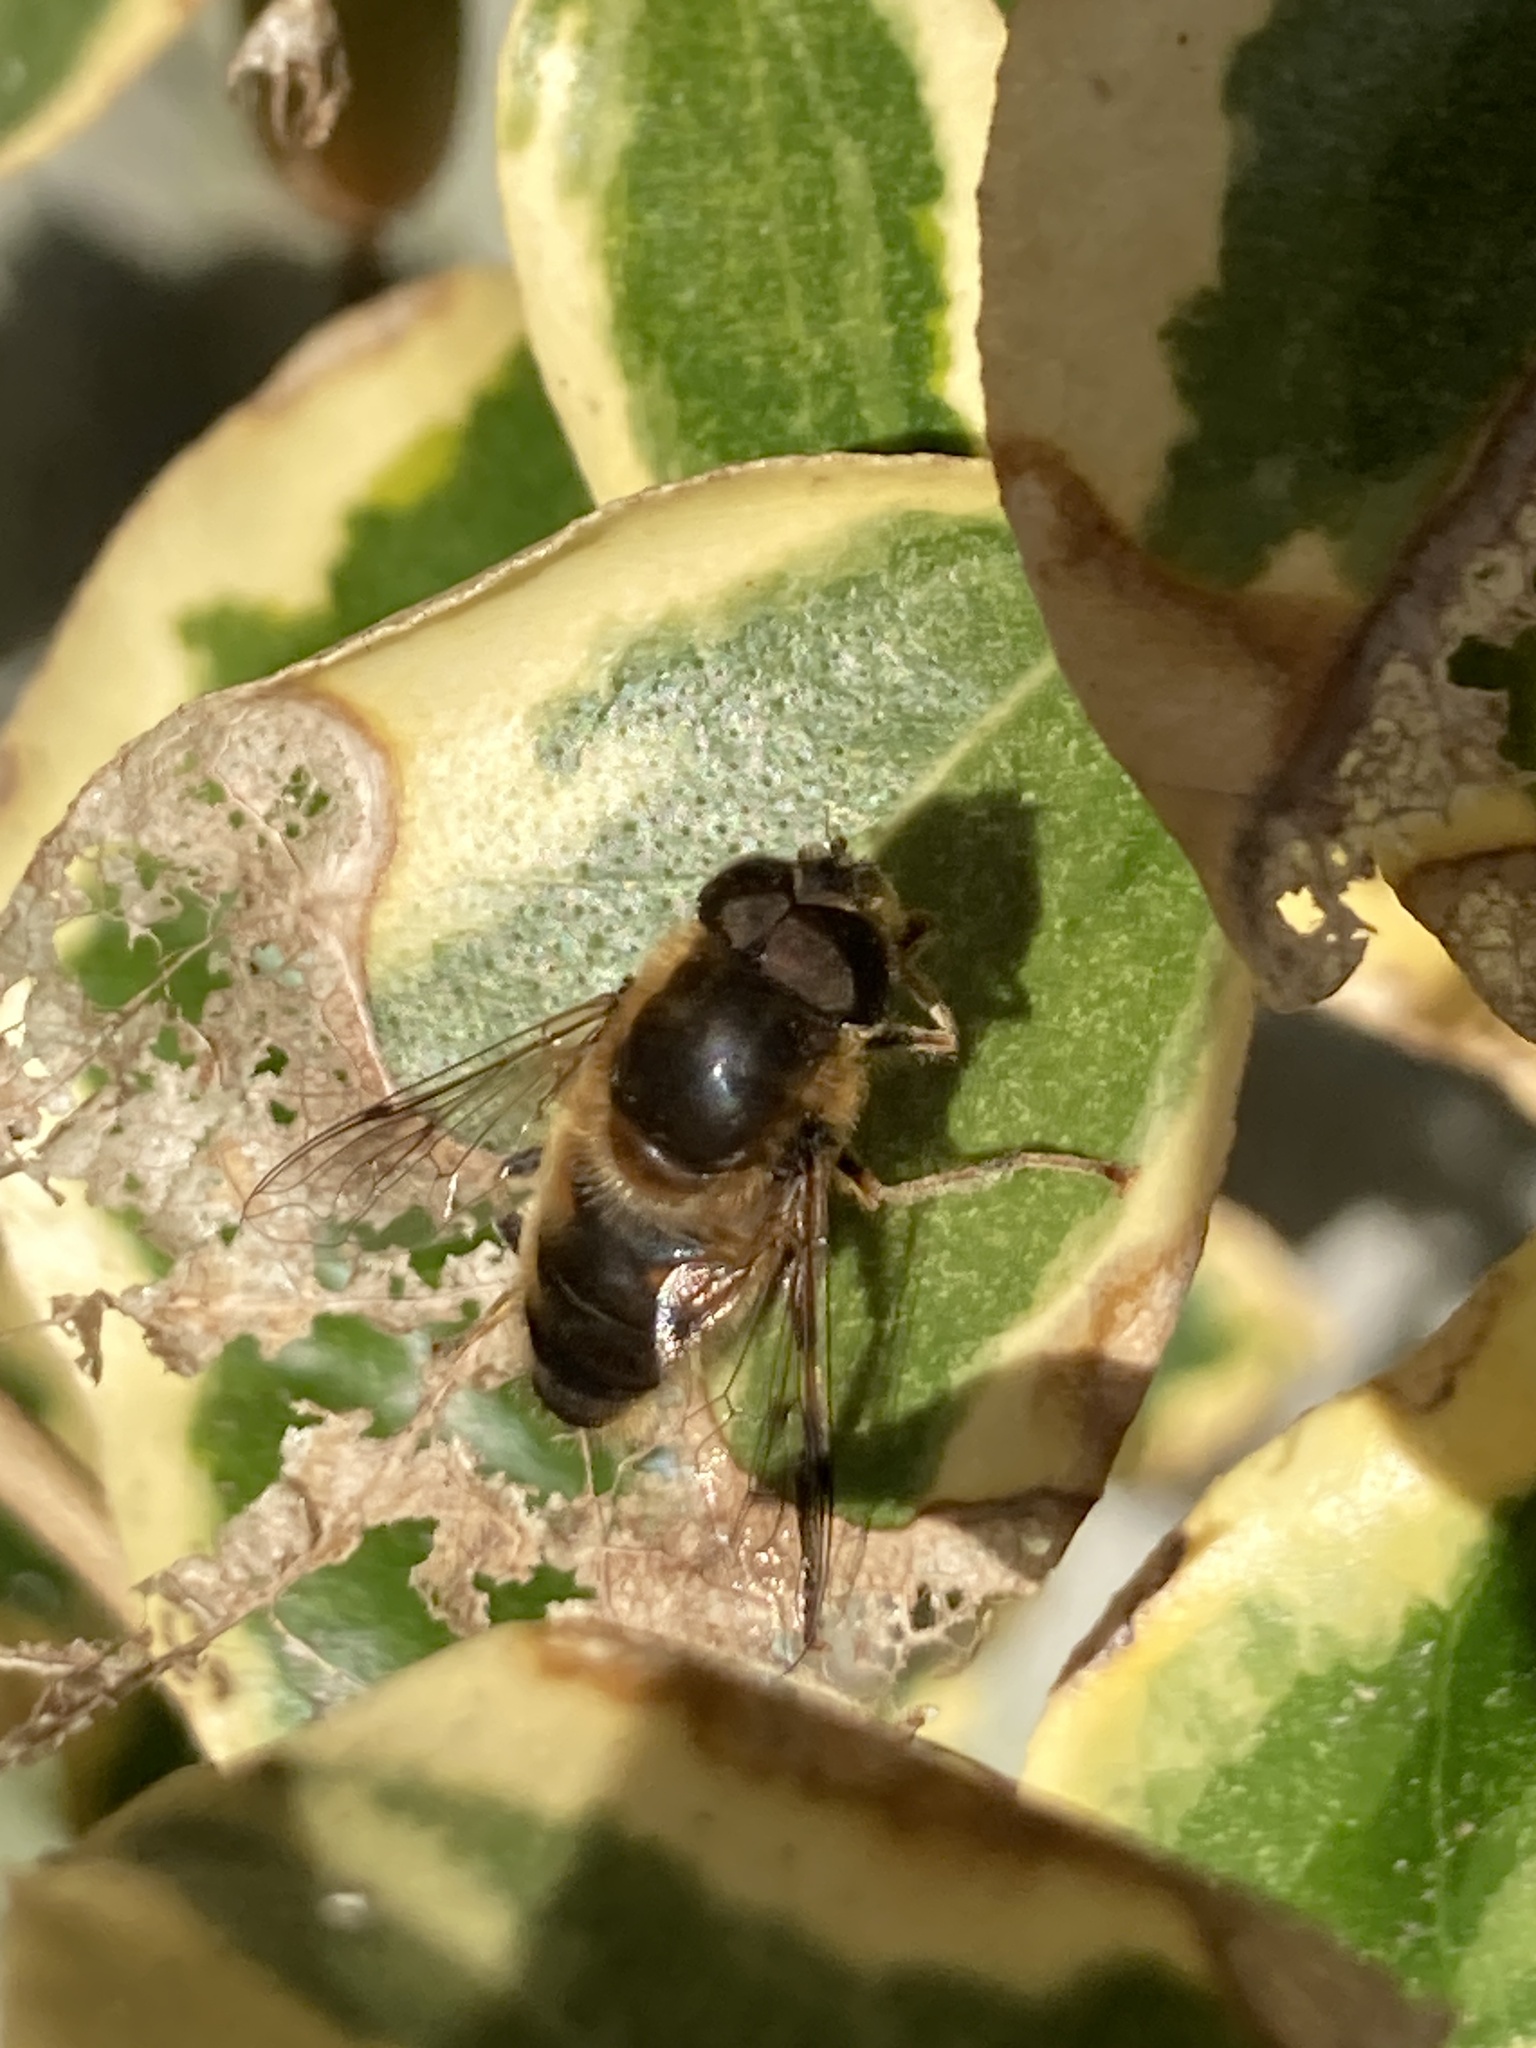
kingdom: Animalia
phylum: Arthropoda
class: Insecta
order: Diptera
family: Syrphidae
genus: Eristalis
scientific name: Eristalis pertinax
